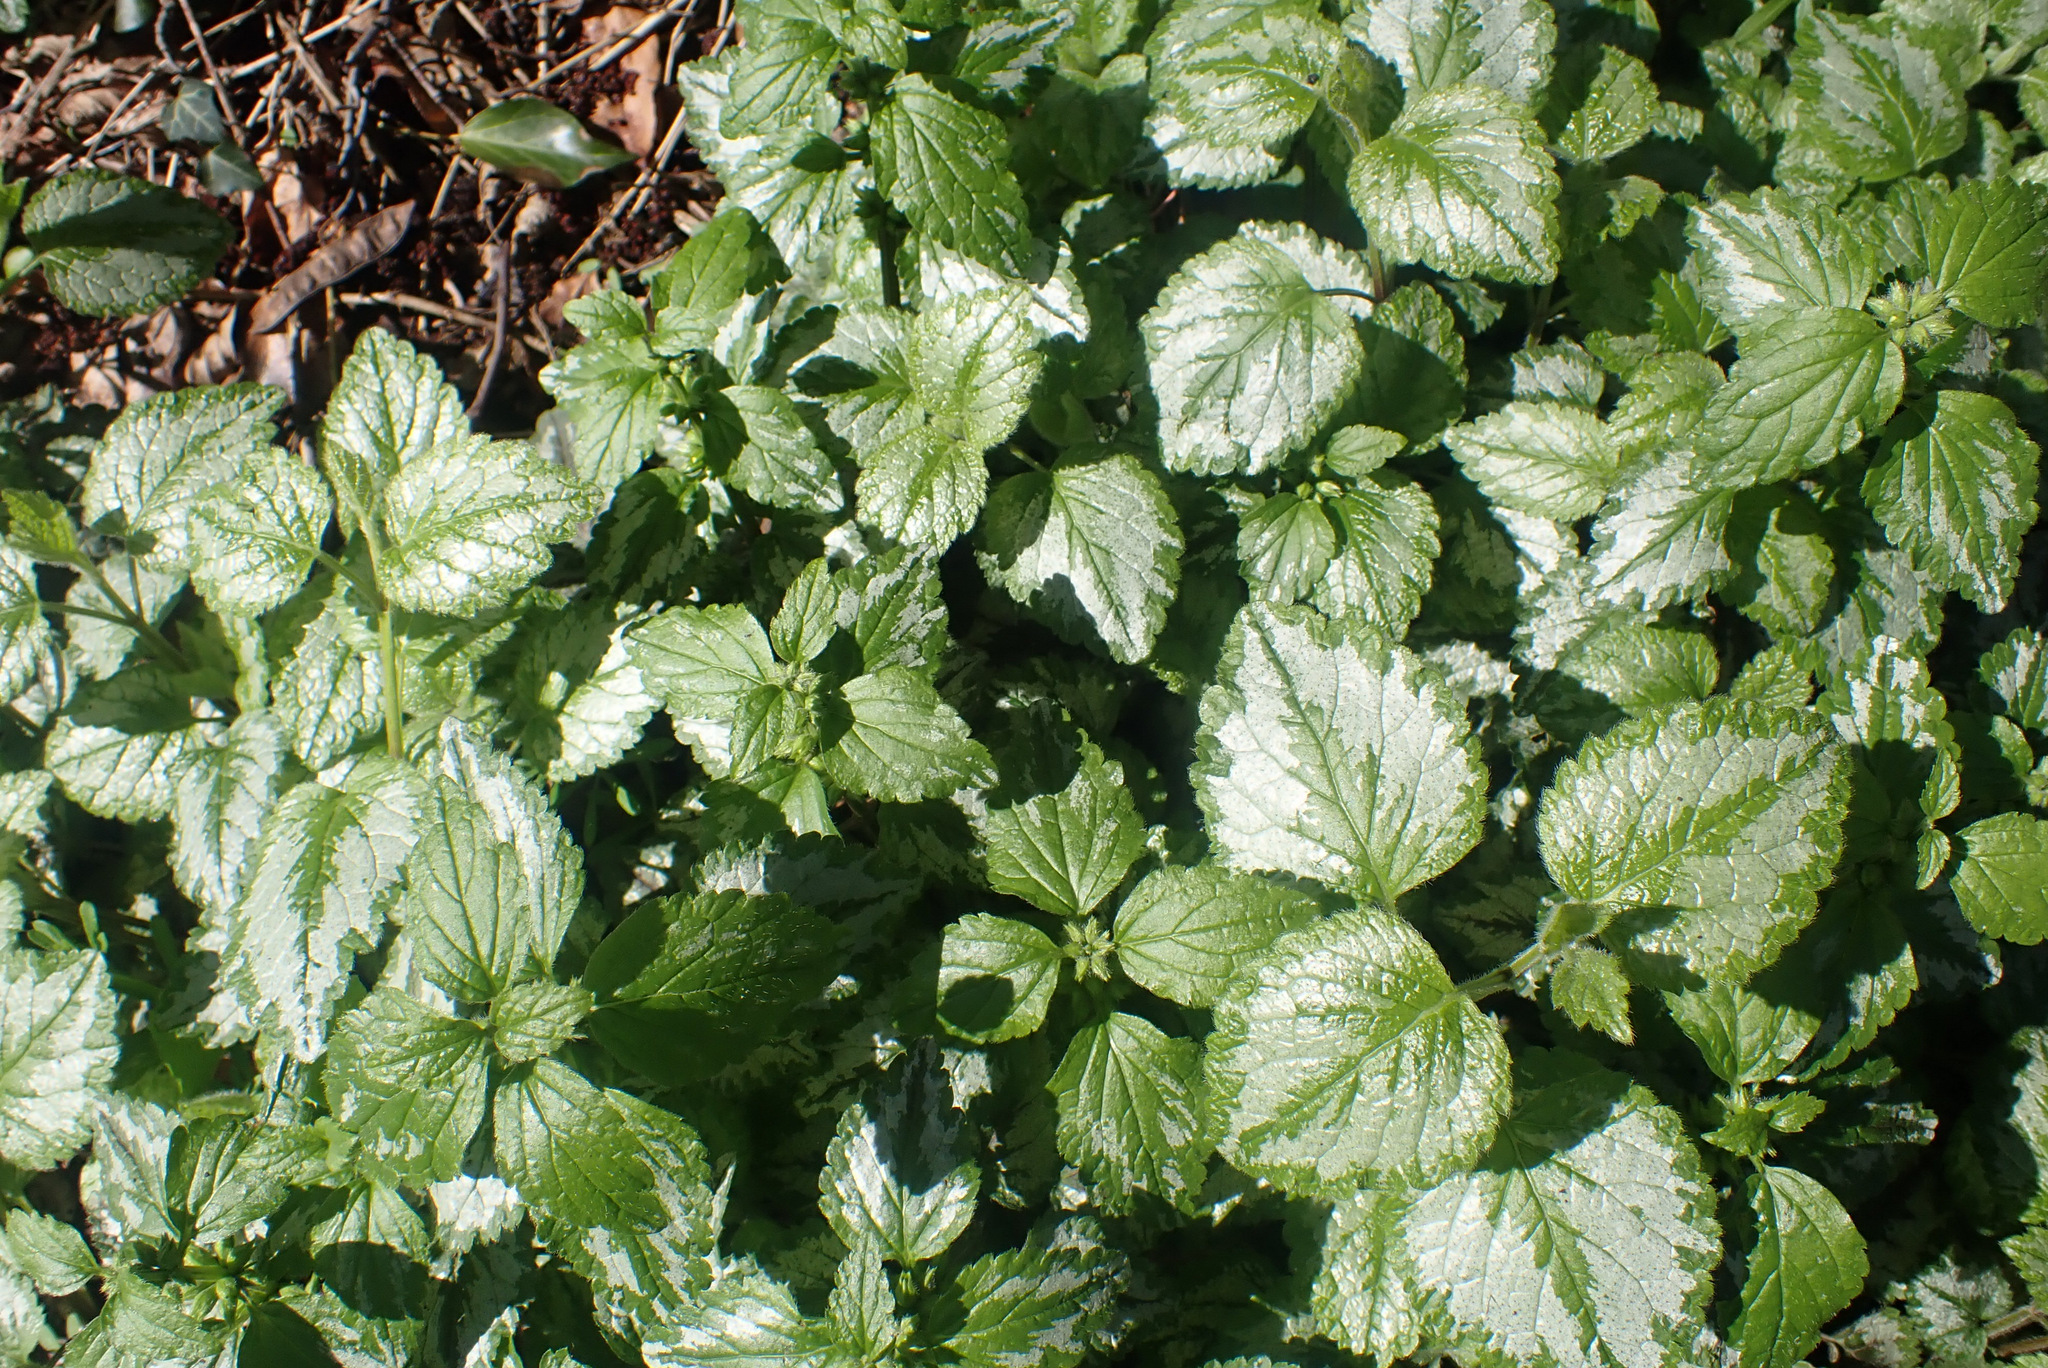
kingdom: Plantae
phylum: Tracheophyta
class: Magnoliopsida
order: Lamiales
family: Lamiaceae
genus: Lamium
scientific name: Lamium galeobdolon
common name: Yellow archangel
